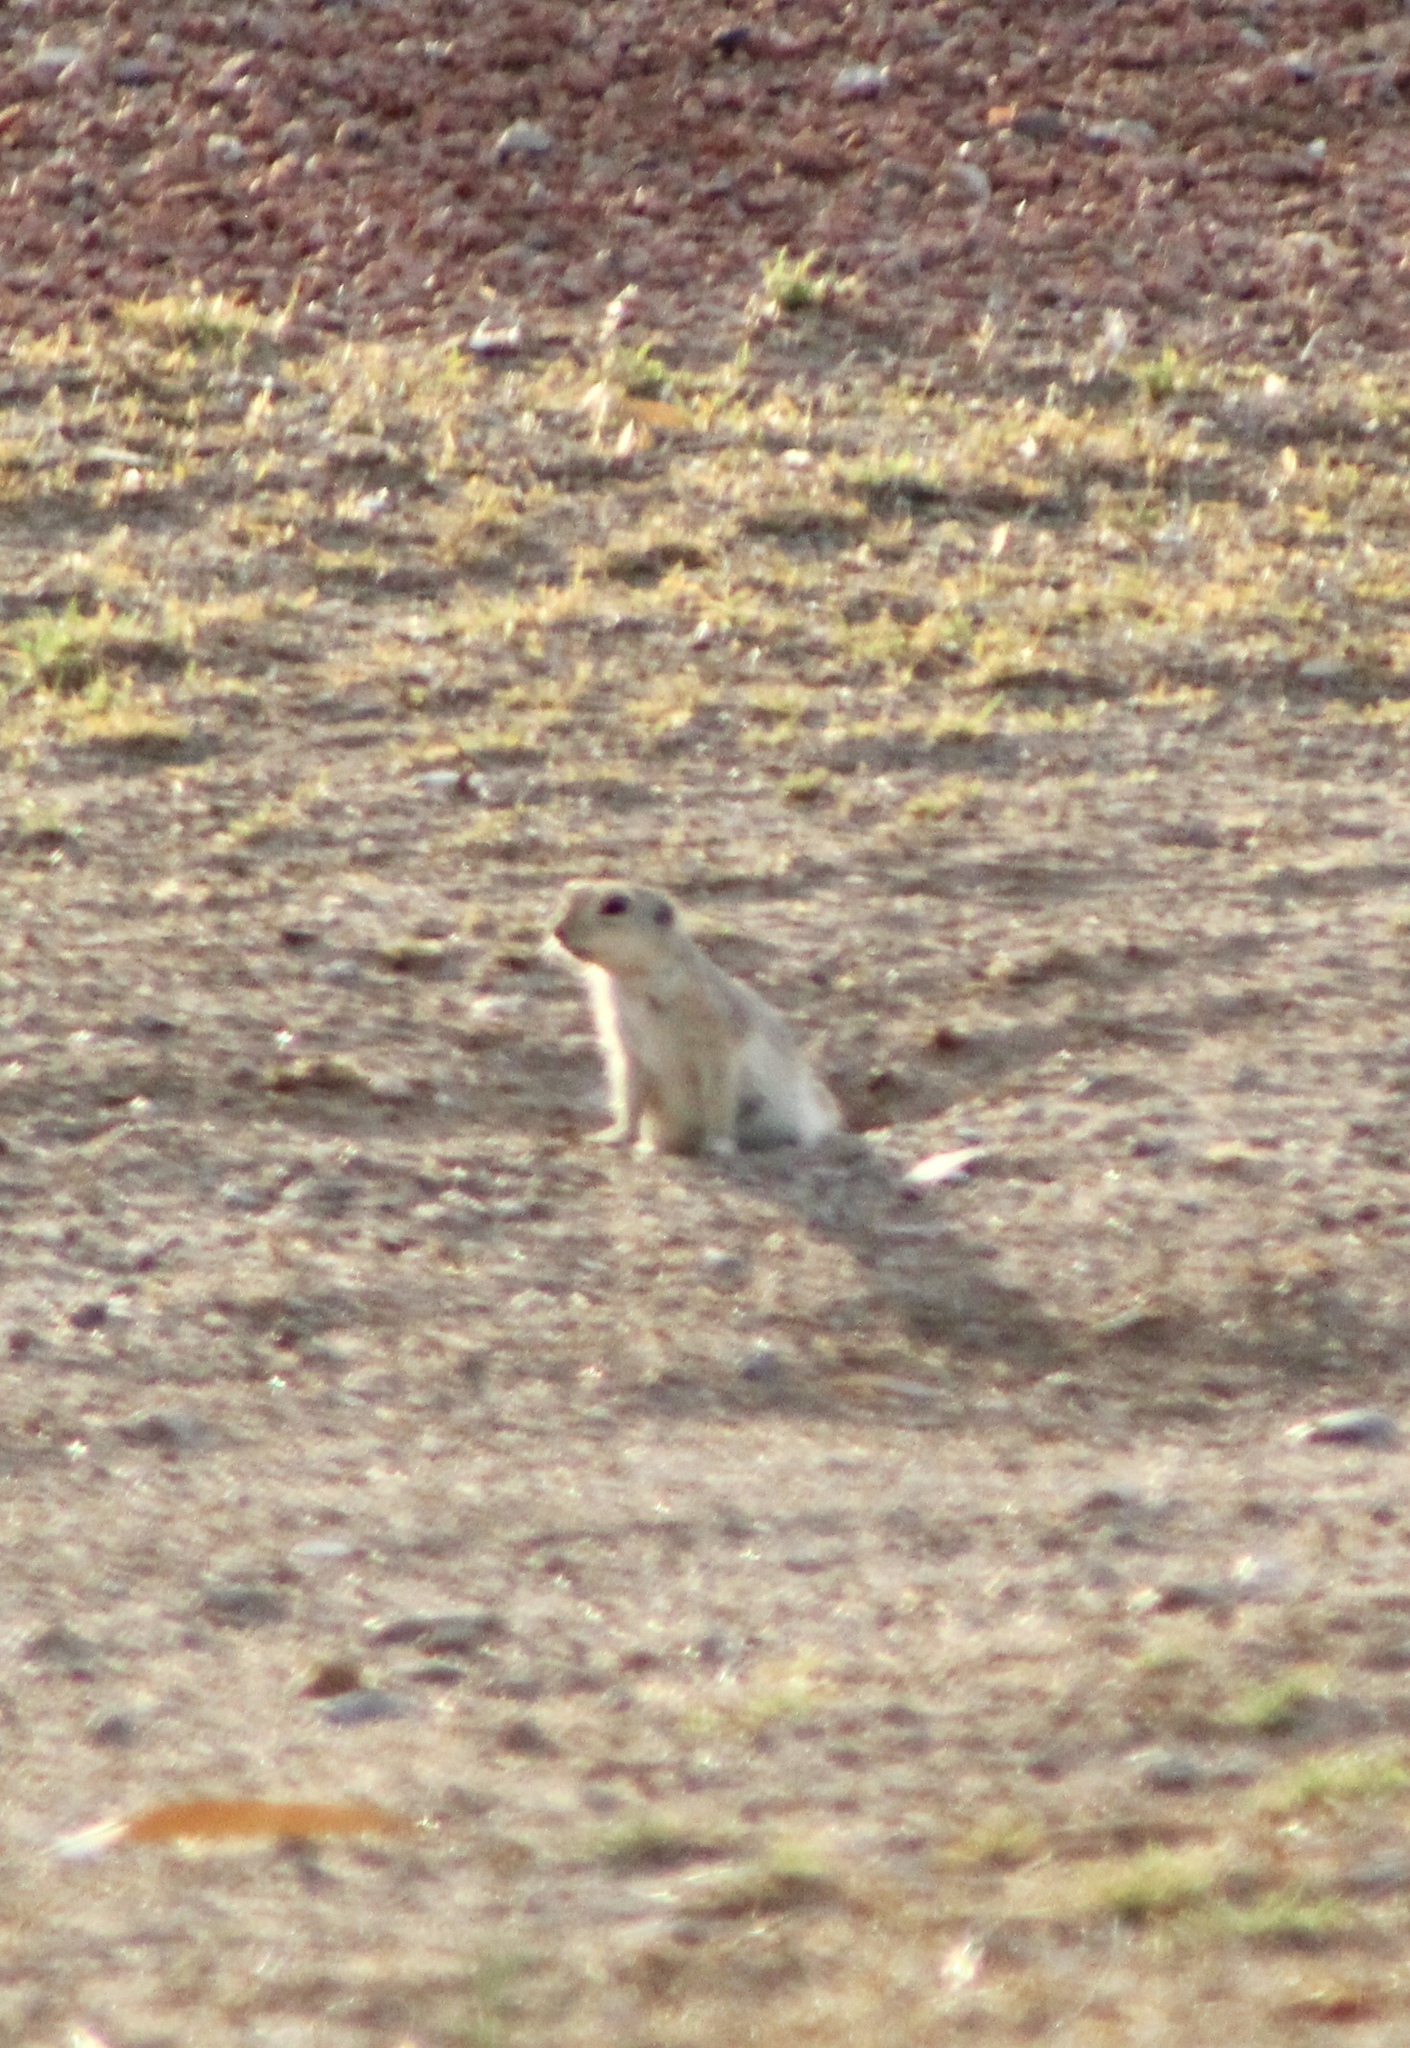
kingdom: Animalia
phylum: Chordata
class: Mammalia
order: Rodentia
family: Sciuridae
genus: Xerospermophilus
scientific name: Xerospermophilus tereticaudus
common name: Round-tailed ground squirrel
